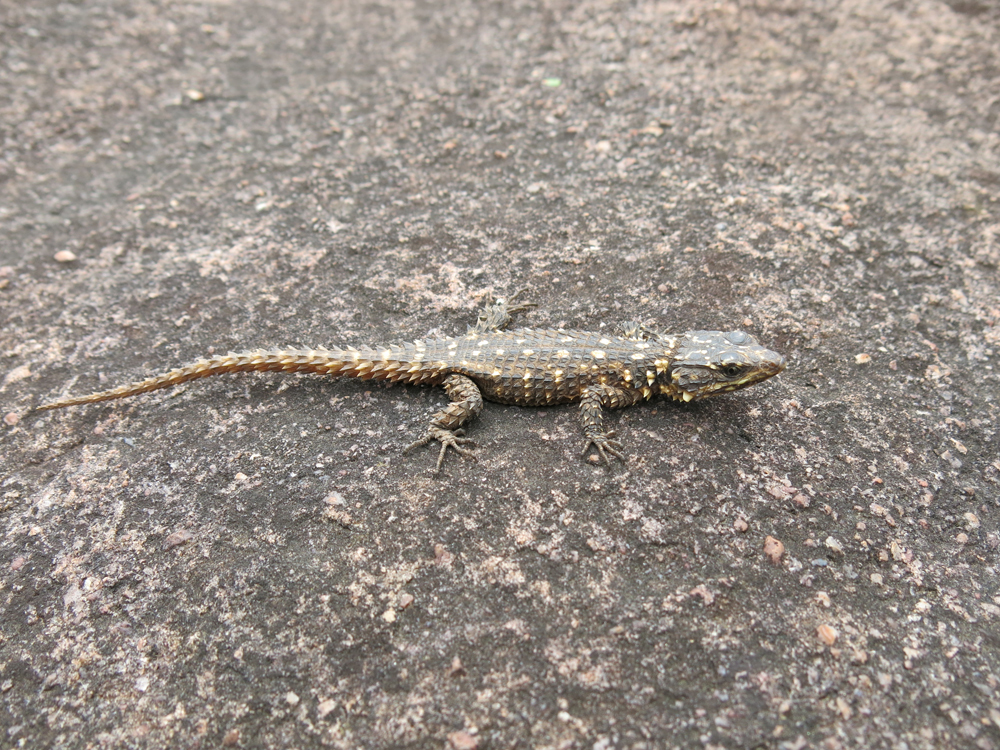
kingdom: Animalia
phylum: Chordata
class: Squamata
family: Cordylidae
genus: Smaug
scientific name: Smaug depressus
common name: Flat dragon lizard
